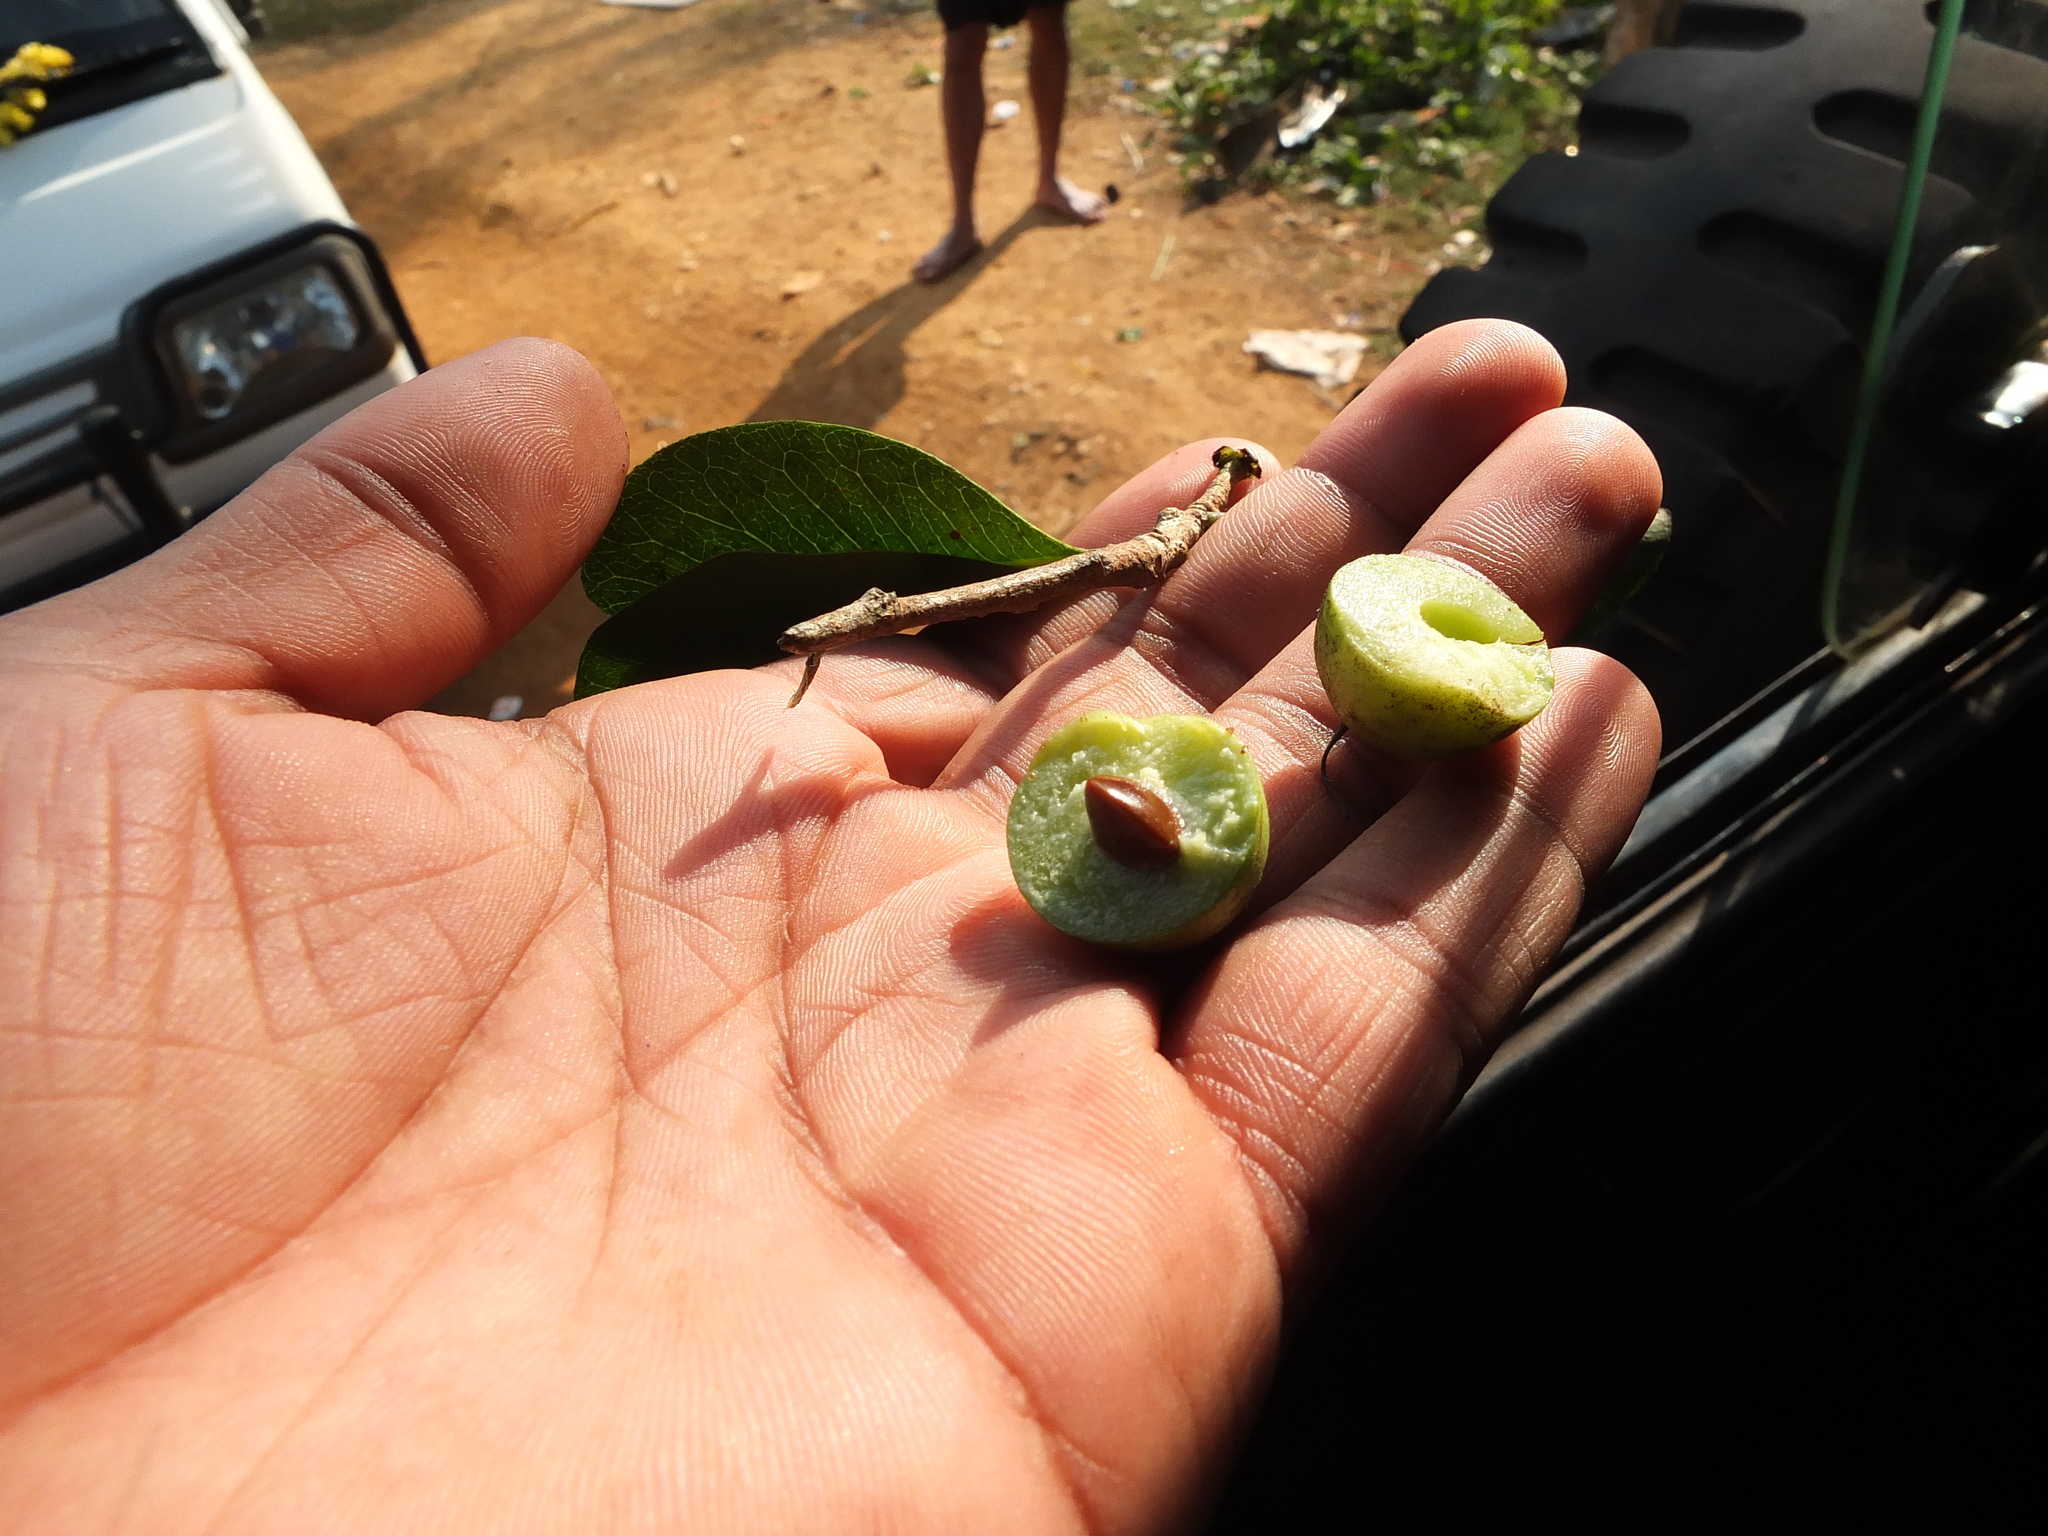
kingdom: Plantae
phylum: Tracheophyta
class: Magnoliopsida
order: Ericales
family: Sapotaceae
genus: Xantolis
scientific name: Xantolis tomentosa
